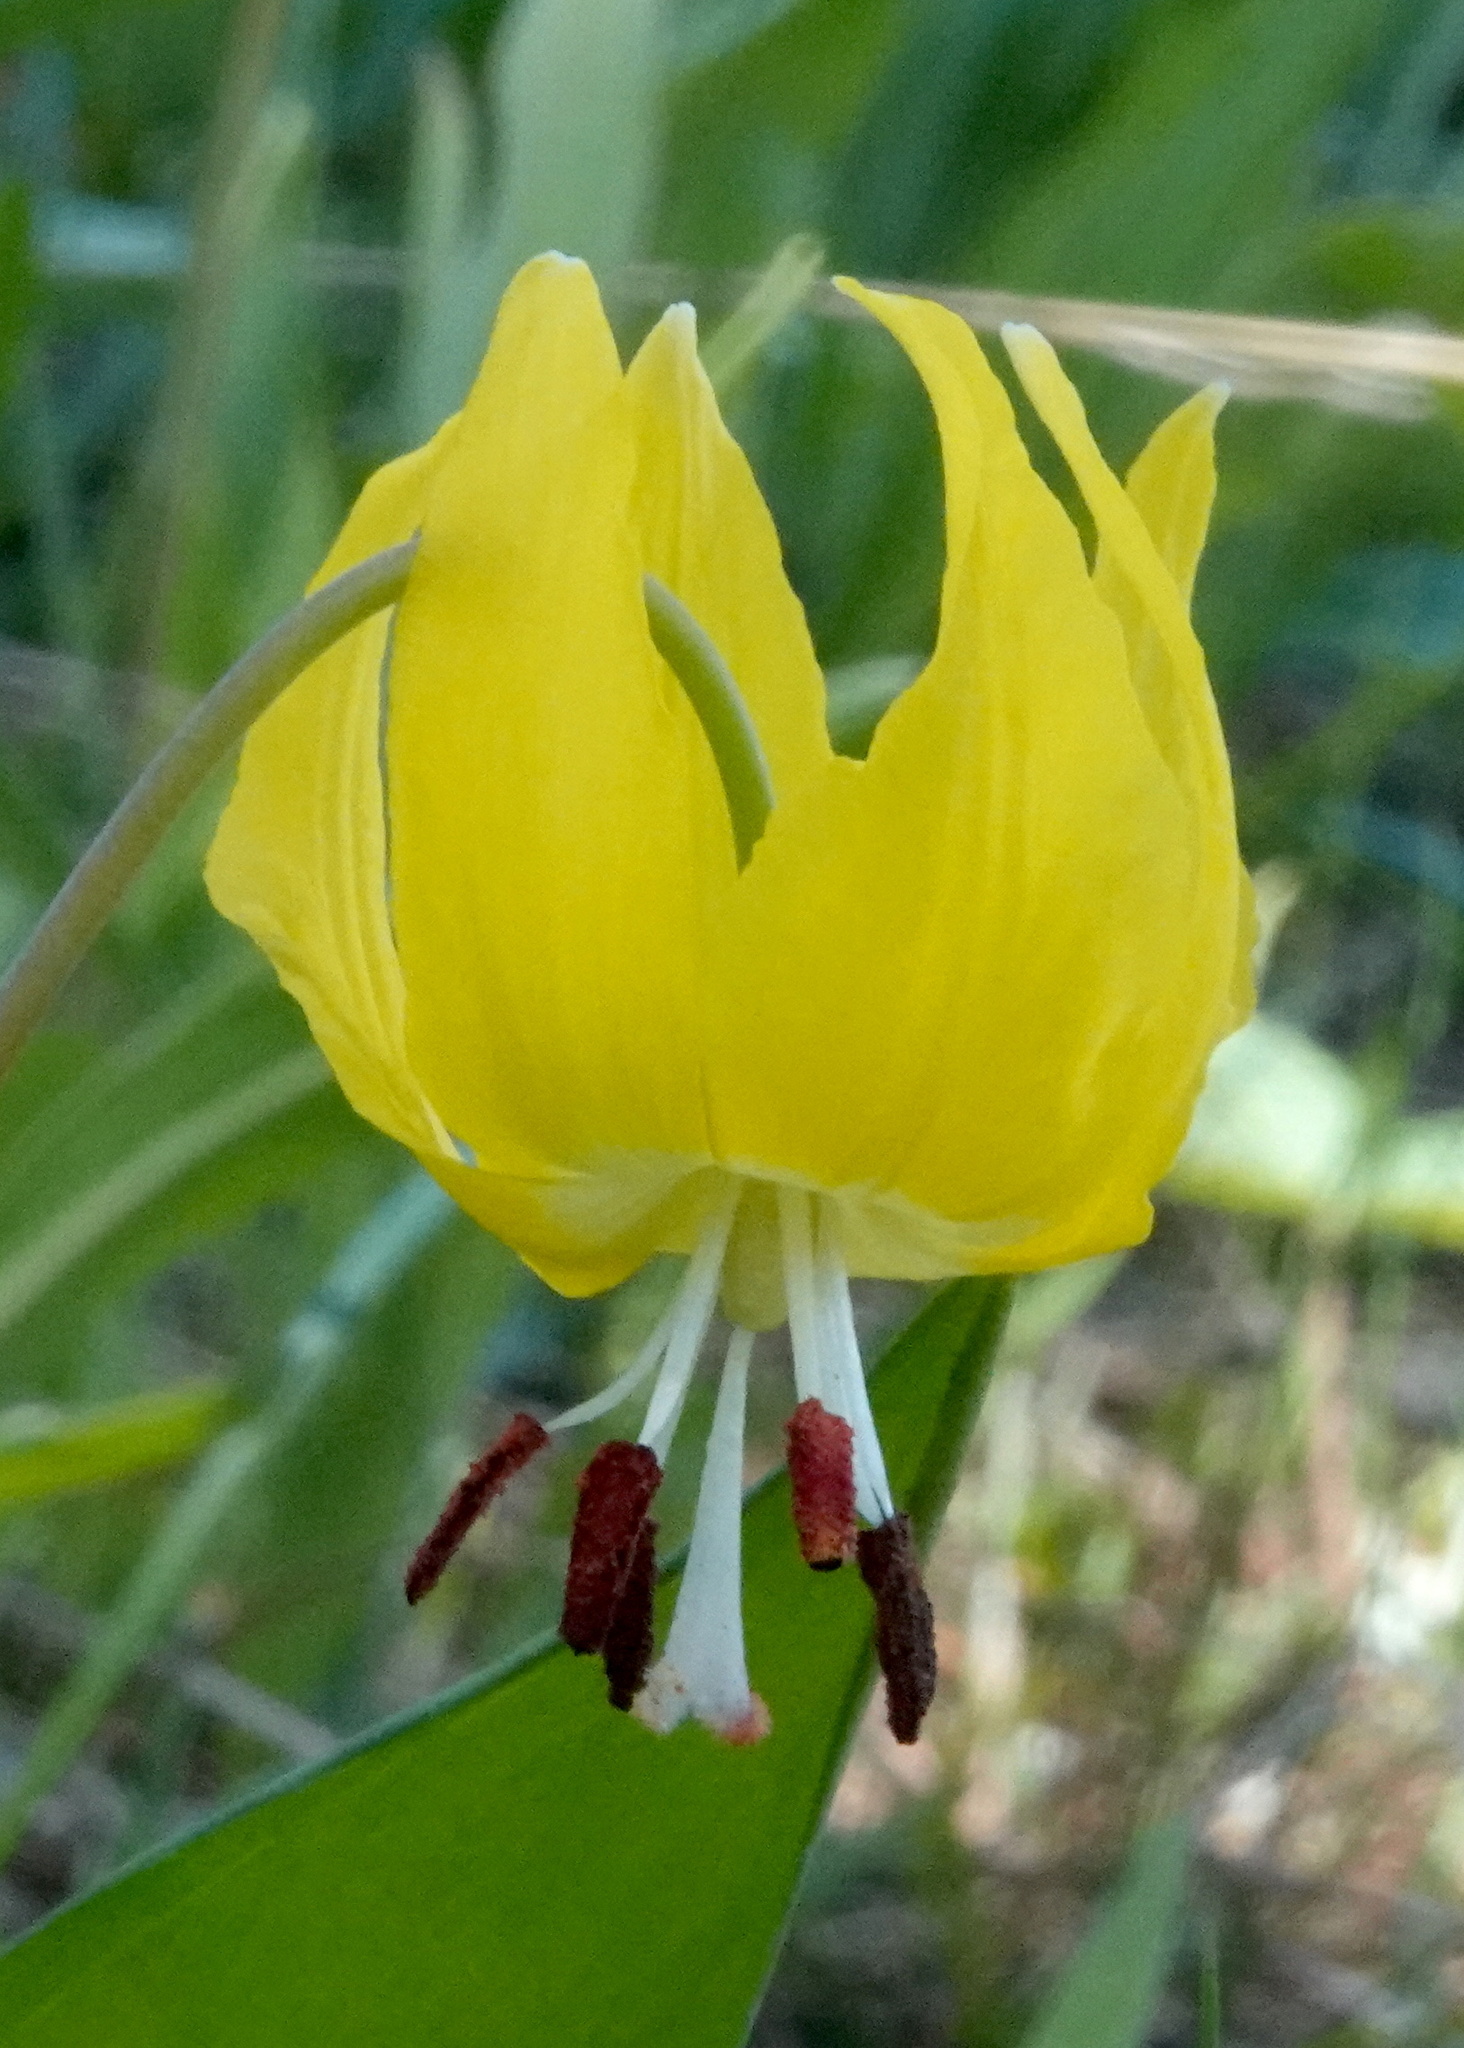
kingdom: Plantae
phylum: Tracheophyta
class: Liliopsida
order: Liliales
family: Liliaceae
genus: Erythronium
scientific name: Erythronium grandiflorum
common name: Avalanche-lily
